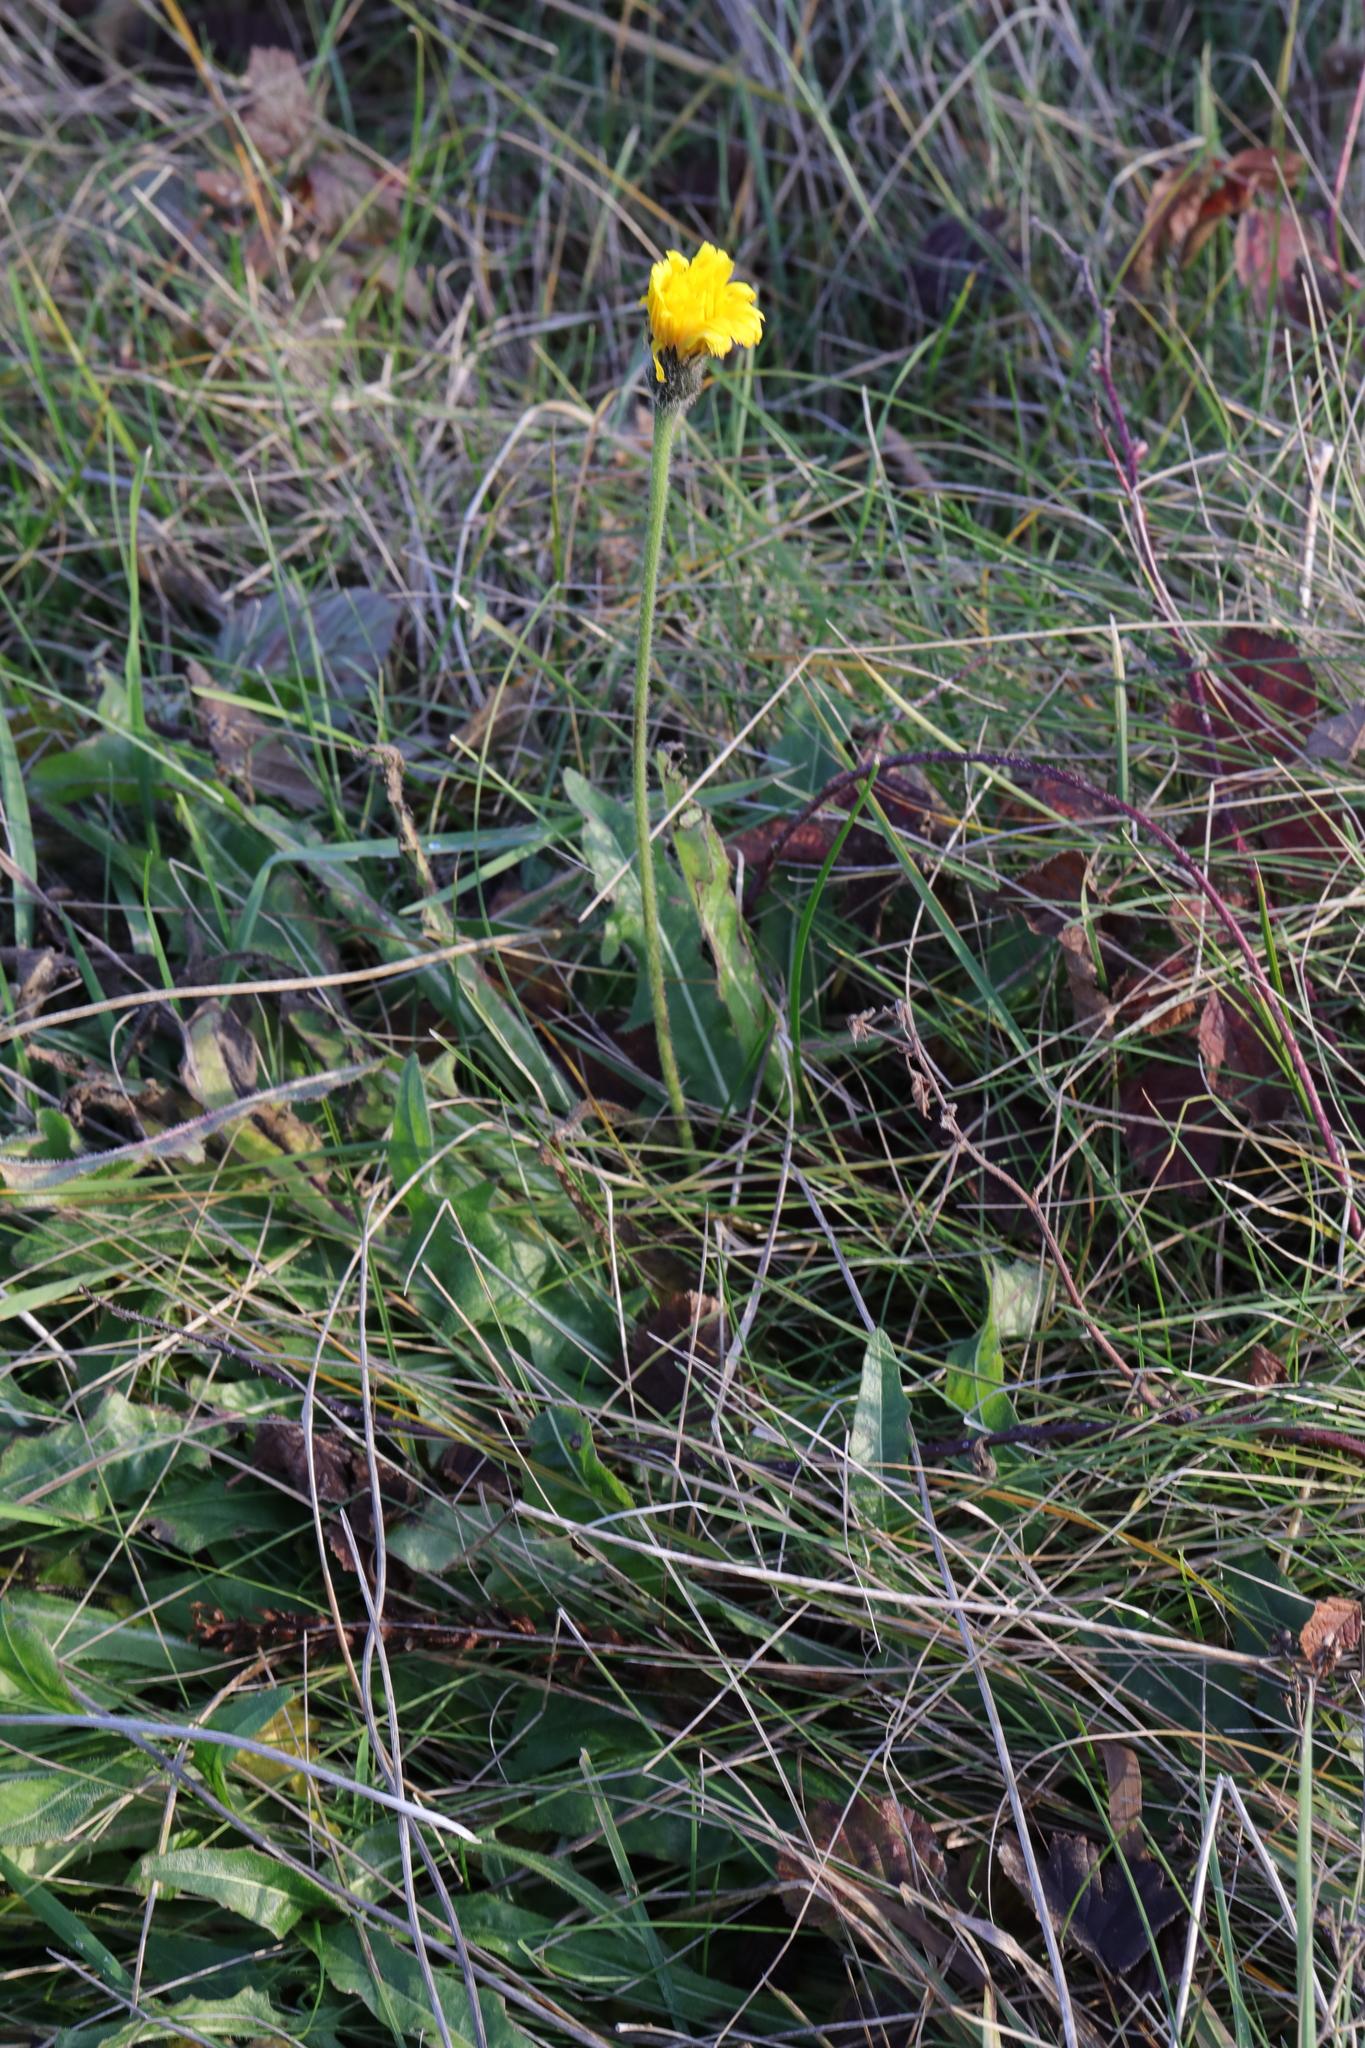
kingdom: Plantae
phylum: Tracheophyta
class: Magnoliopsida
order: Asterales
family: Asteraceae
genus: Leontodon
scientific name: Leontodon hispidus
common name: Rough hawkbit
